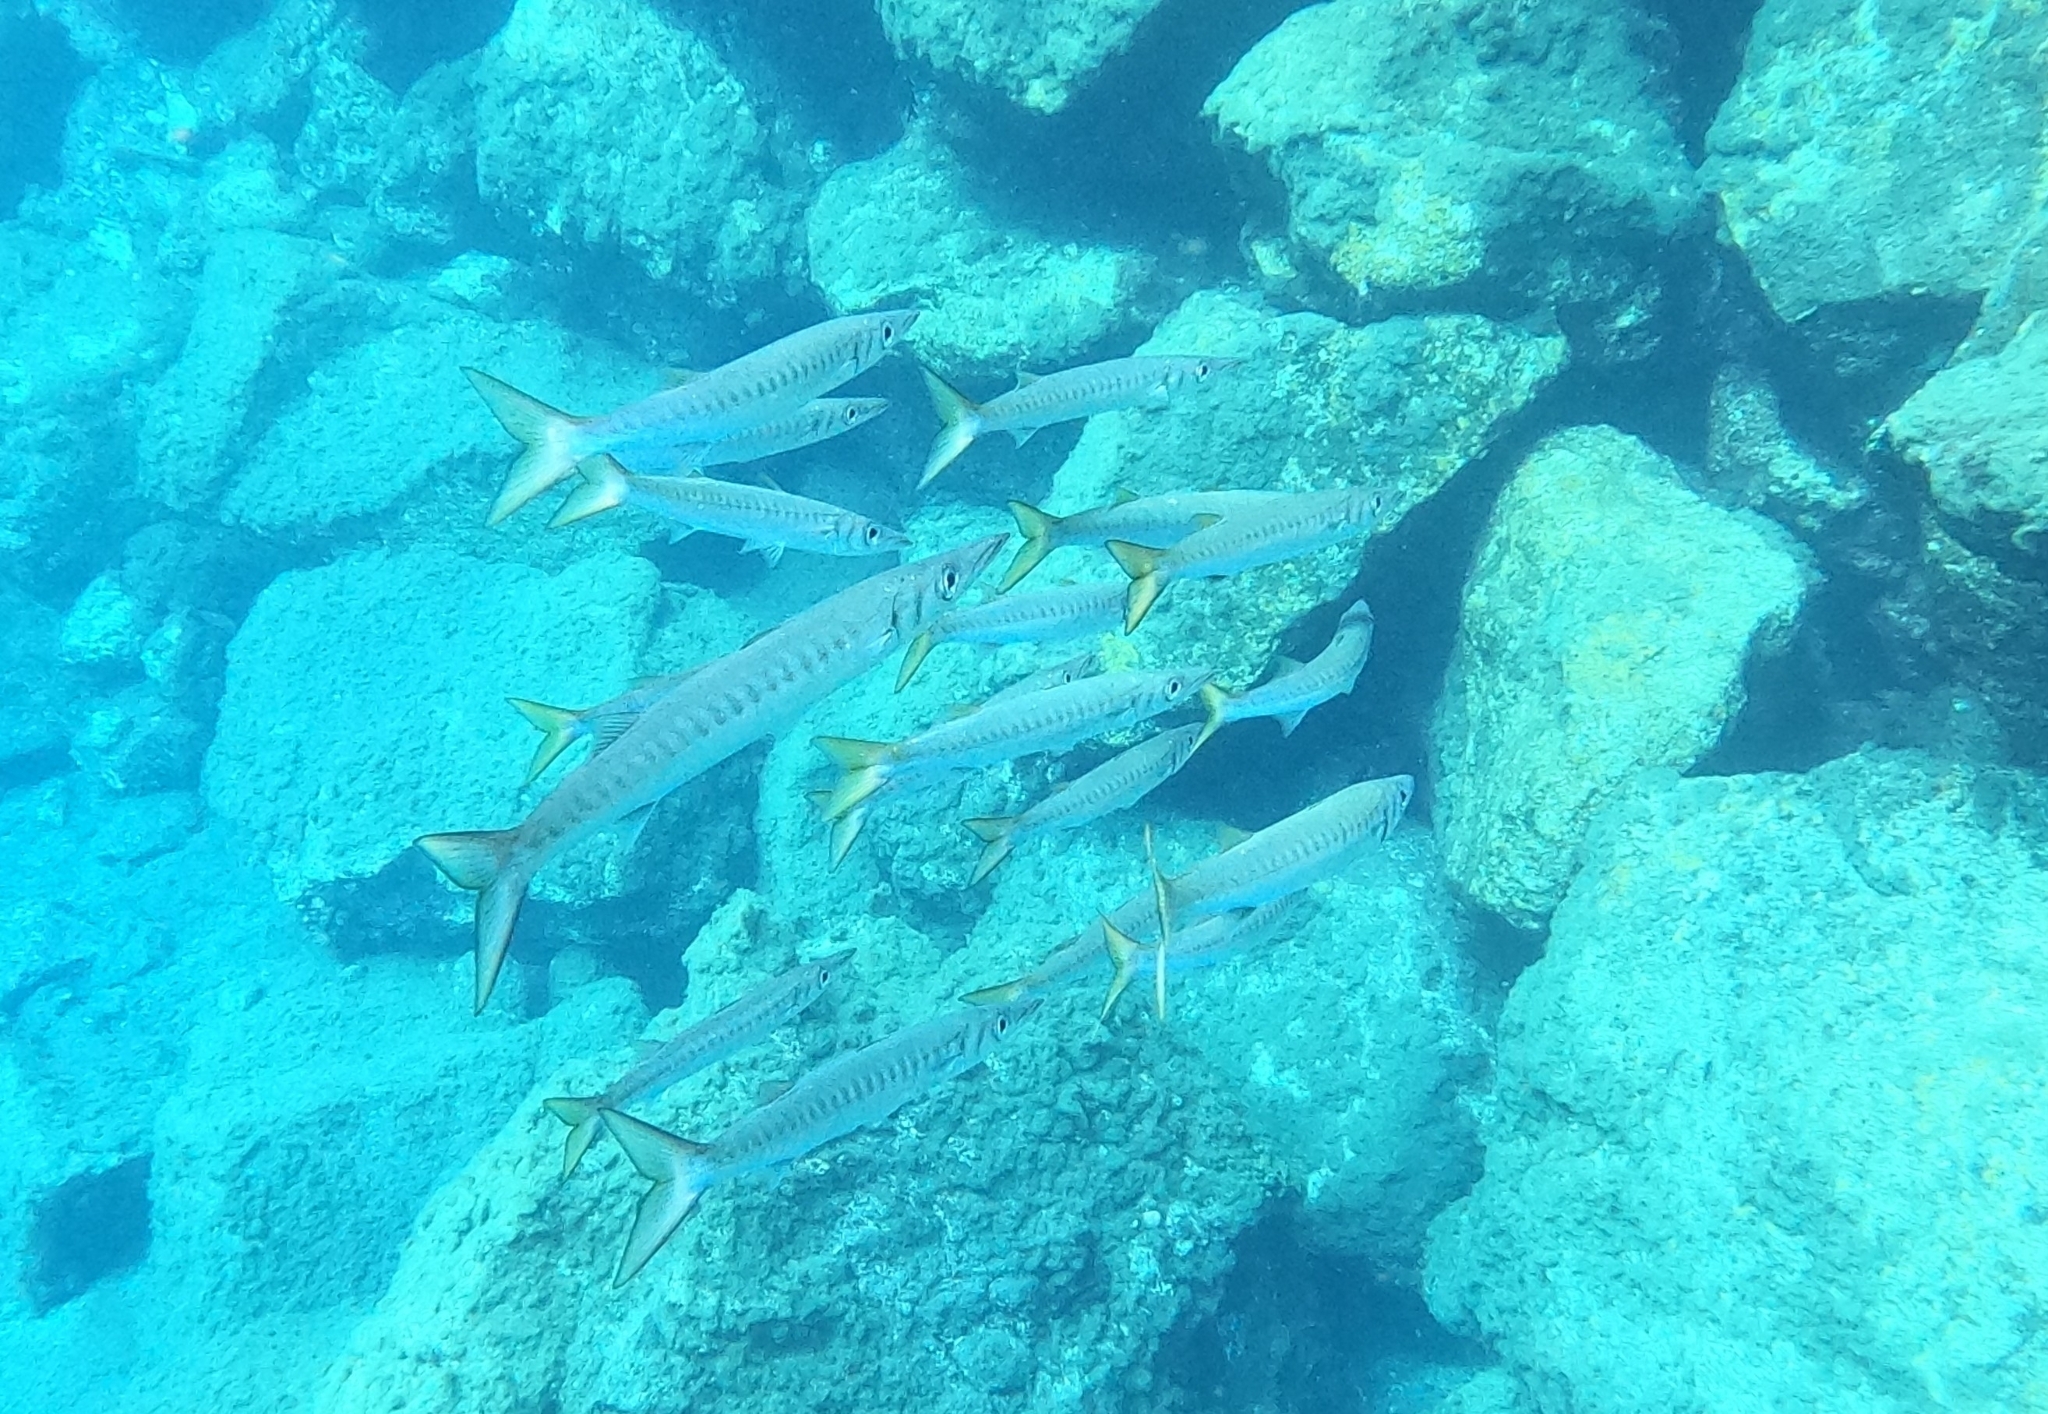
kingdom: Animalia
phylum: Chordata
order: Perciformes
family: Sphyraenidae
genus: Sphyraena
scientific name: Sphyraena viridensis
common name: Yellowmouth barracuda
